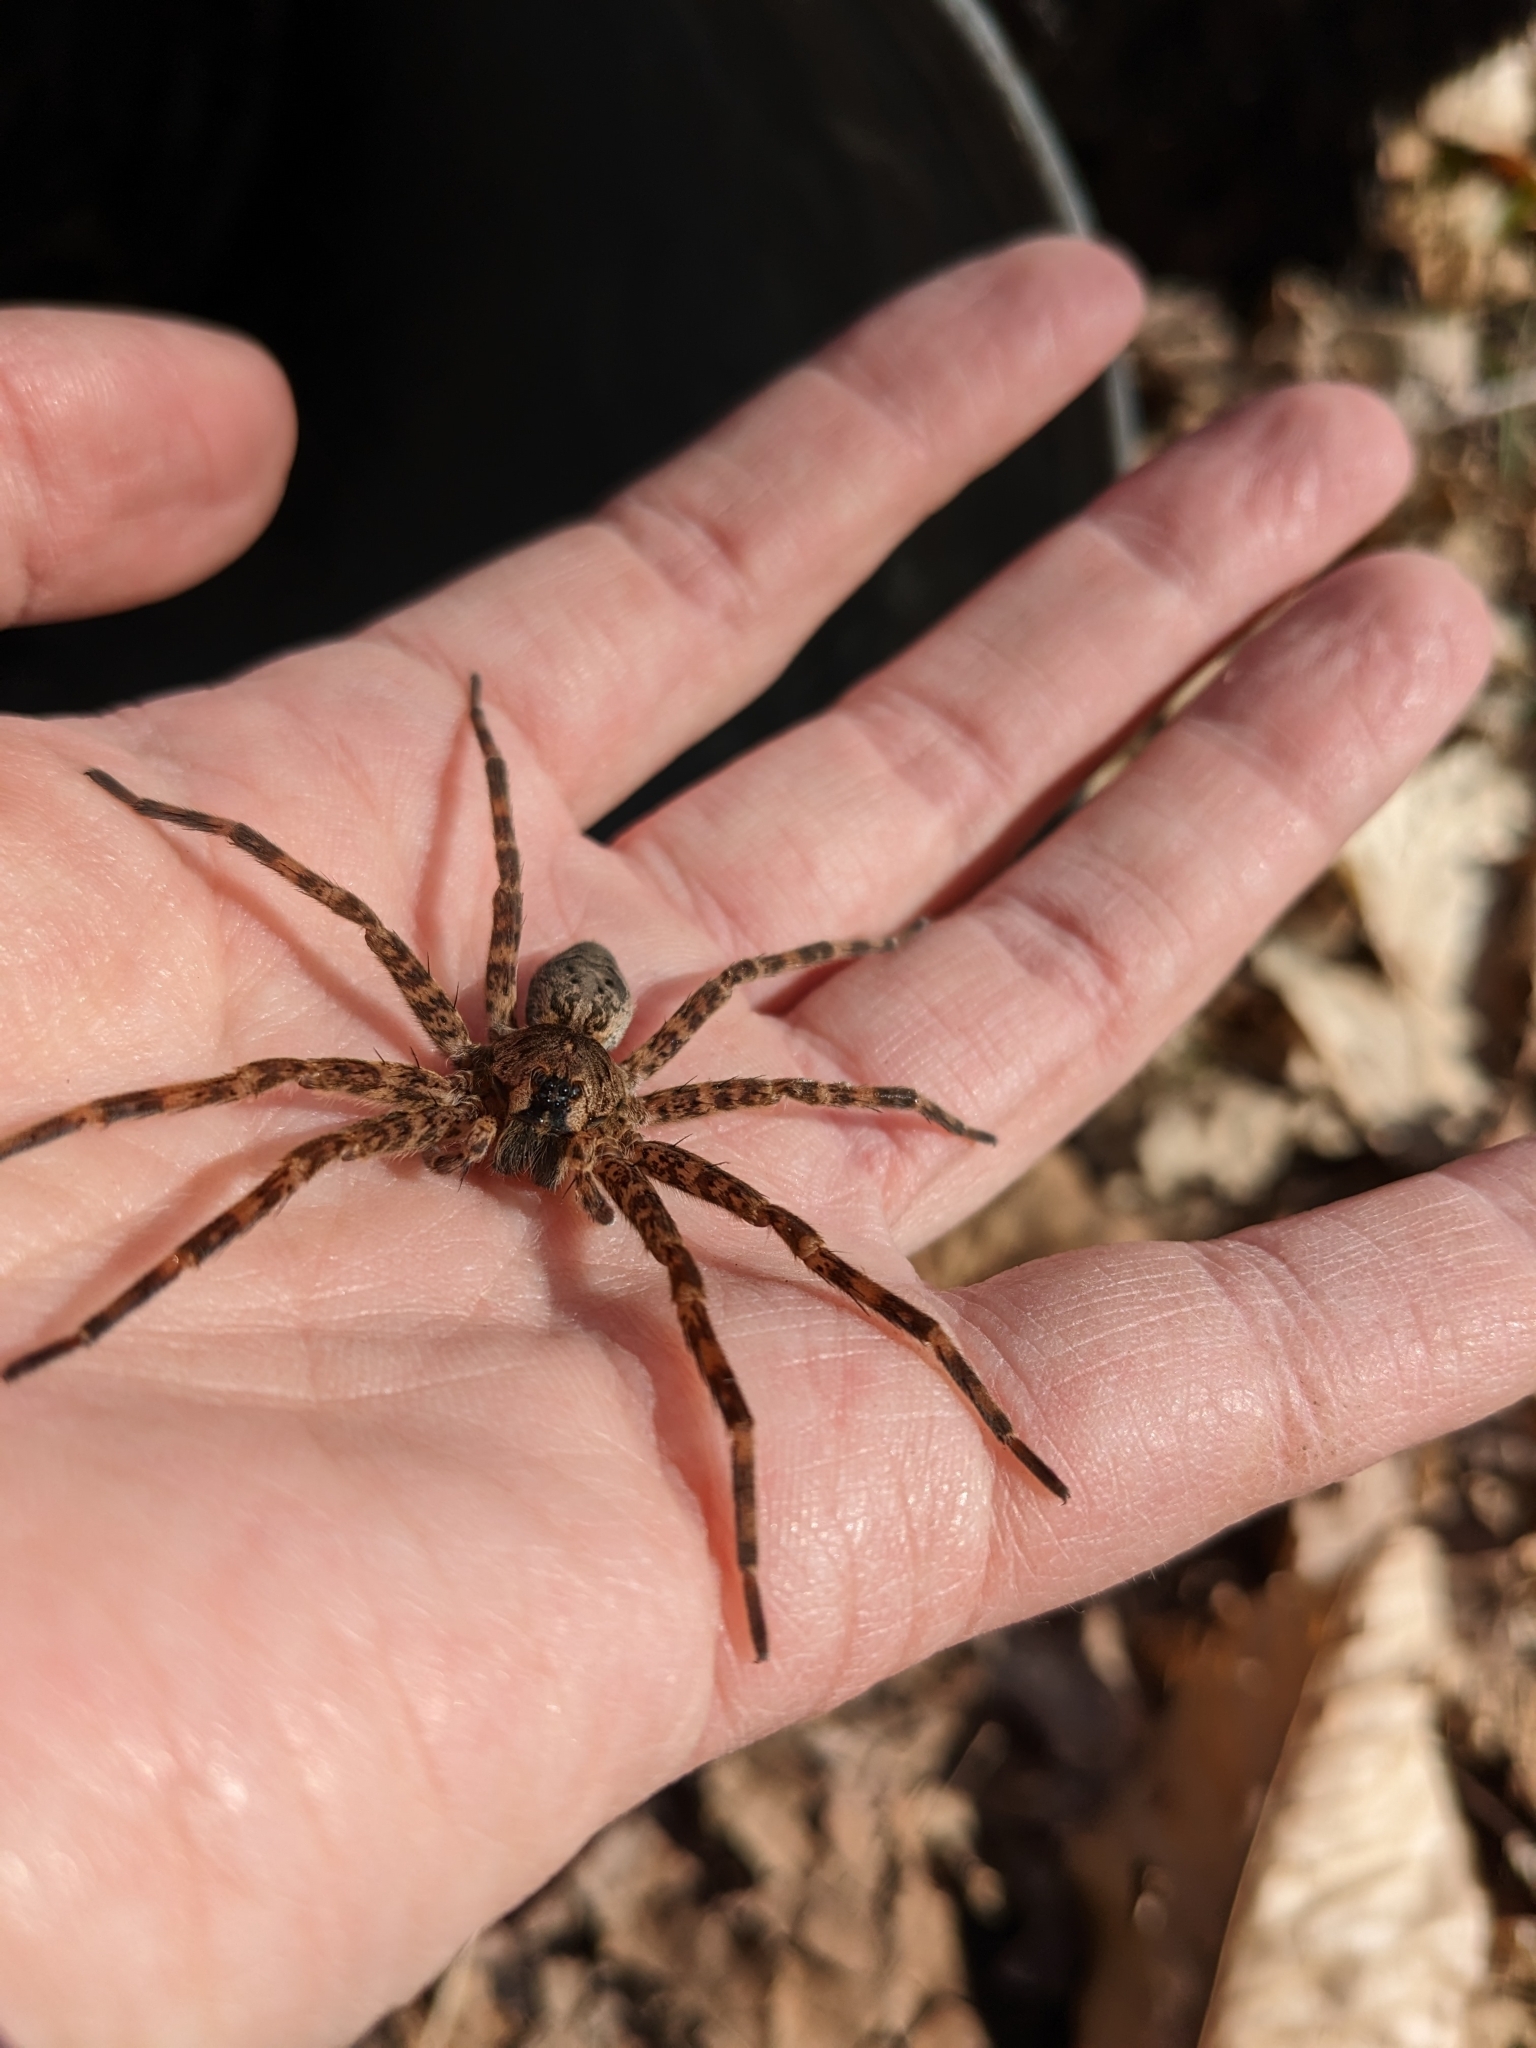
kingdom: Animalia
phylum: Arthropoda
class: Arachnida
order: Araneae
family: Pisauridae
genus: Dolomedes
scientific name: Dolomedes tenebrosus
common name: Dark fishing spider
